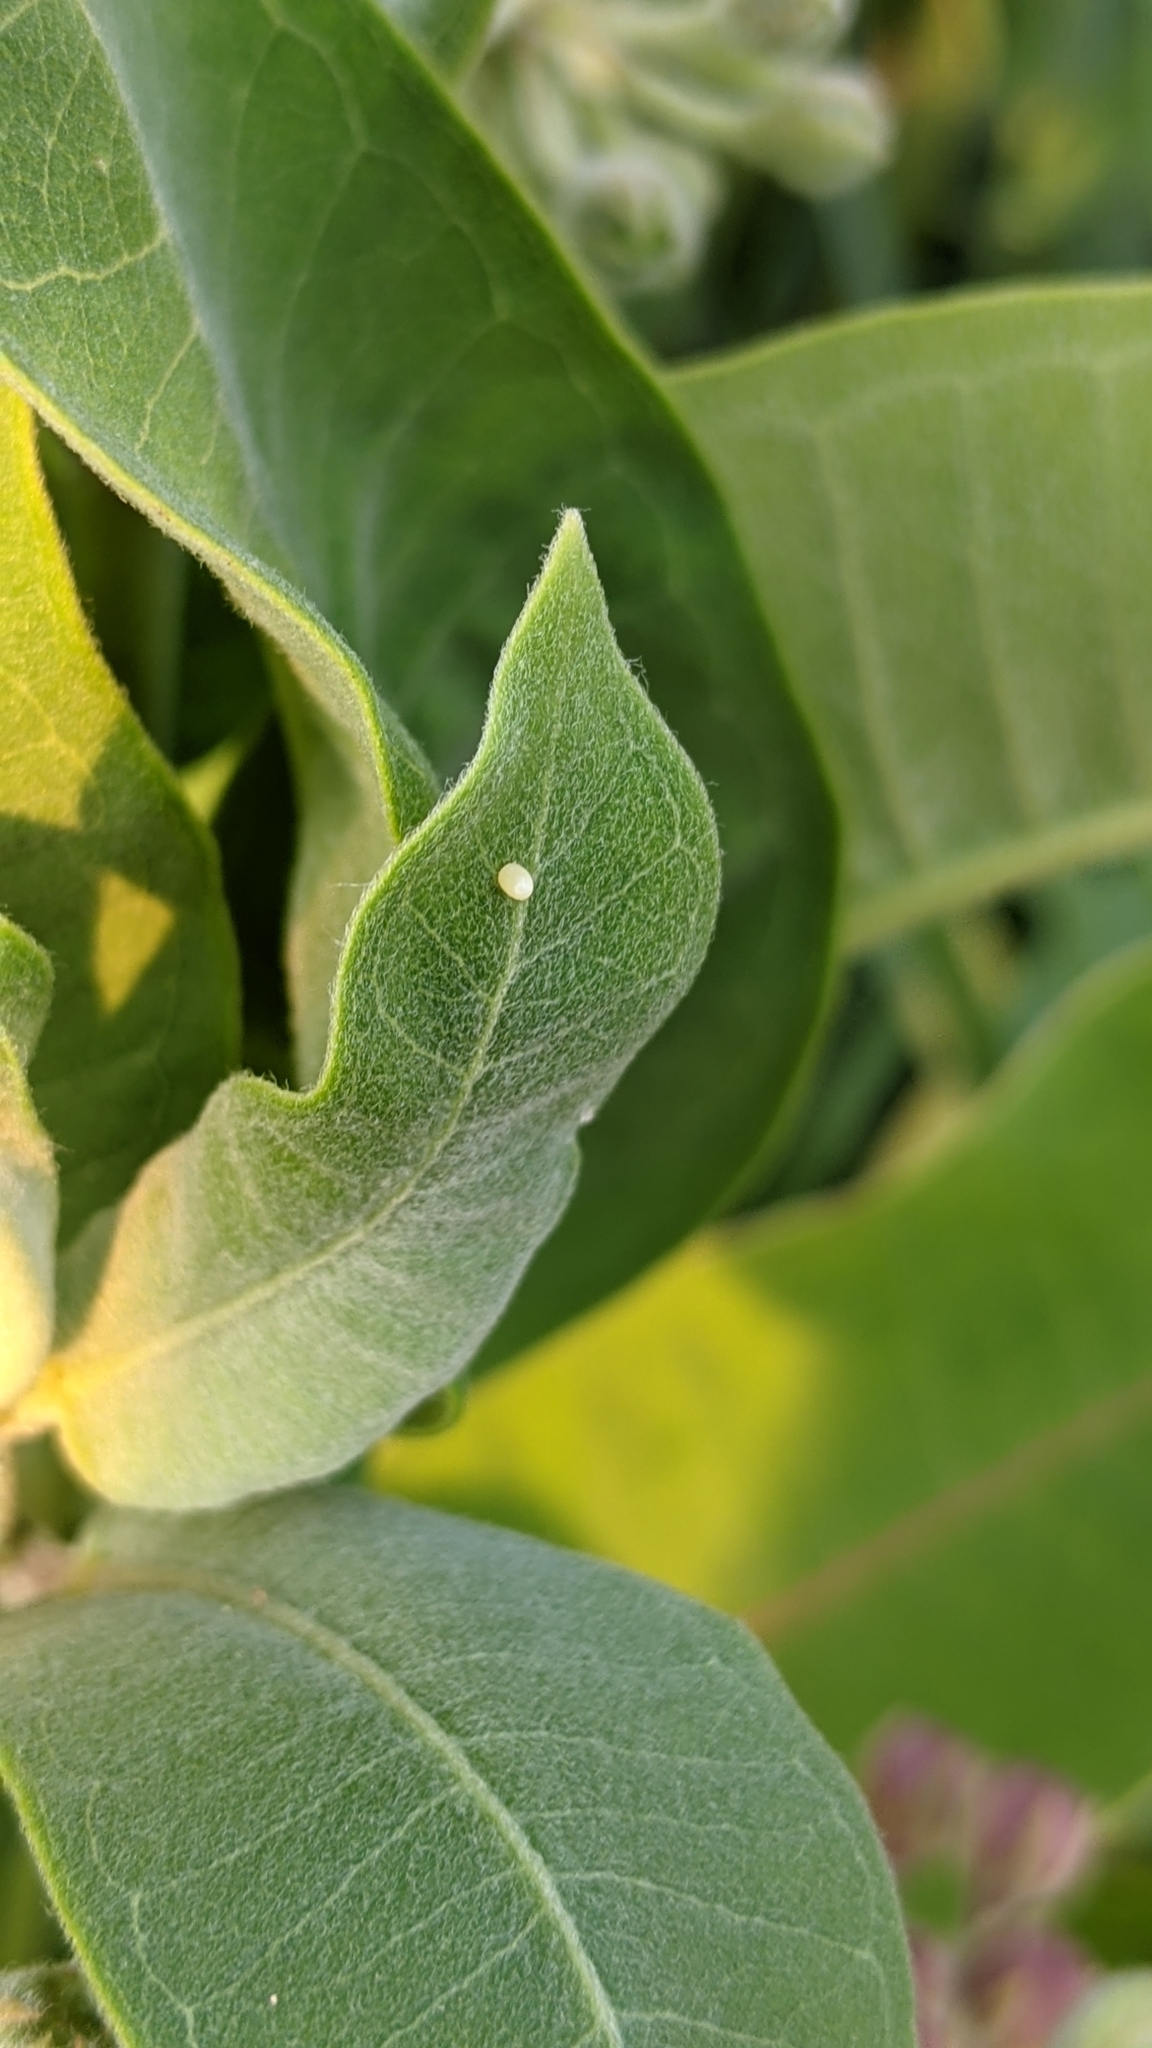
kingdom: Animalia
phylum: Arthropoda
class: Insecta
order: Lepidoptera
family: Nymphalidae
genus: Danaus
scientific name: Danaus plexippus
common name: Monarch
